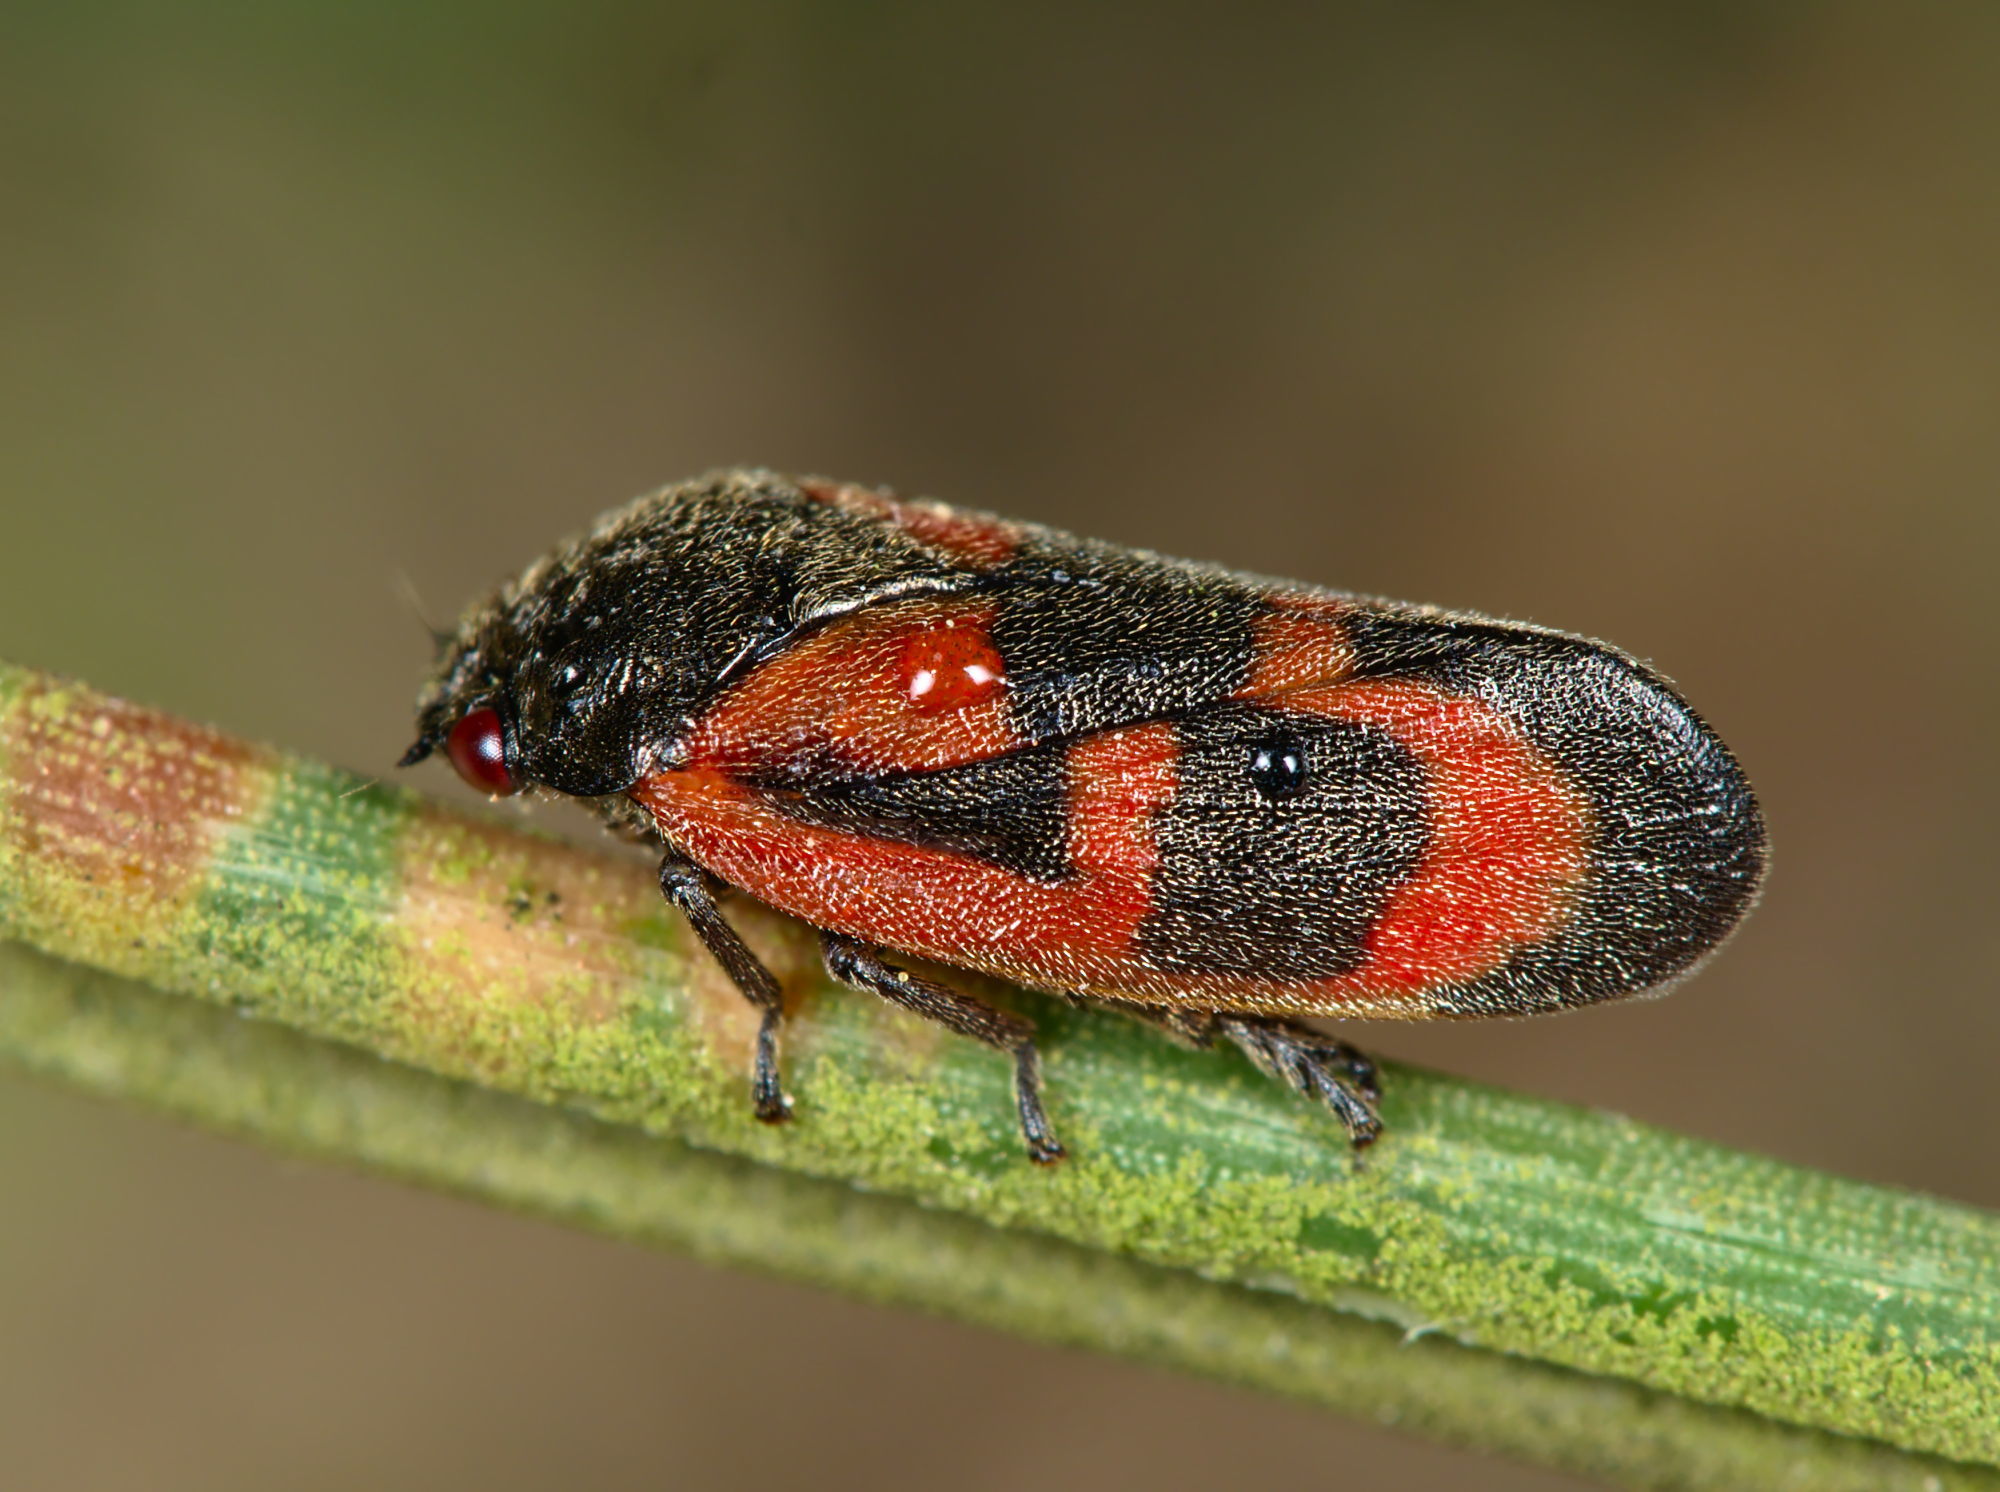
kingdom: Animalia
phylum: Arthropoda
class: Insecta
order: Hemiptera
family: Cercopidae
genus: Haematoloma
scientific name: Haematoloma dorsata
